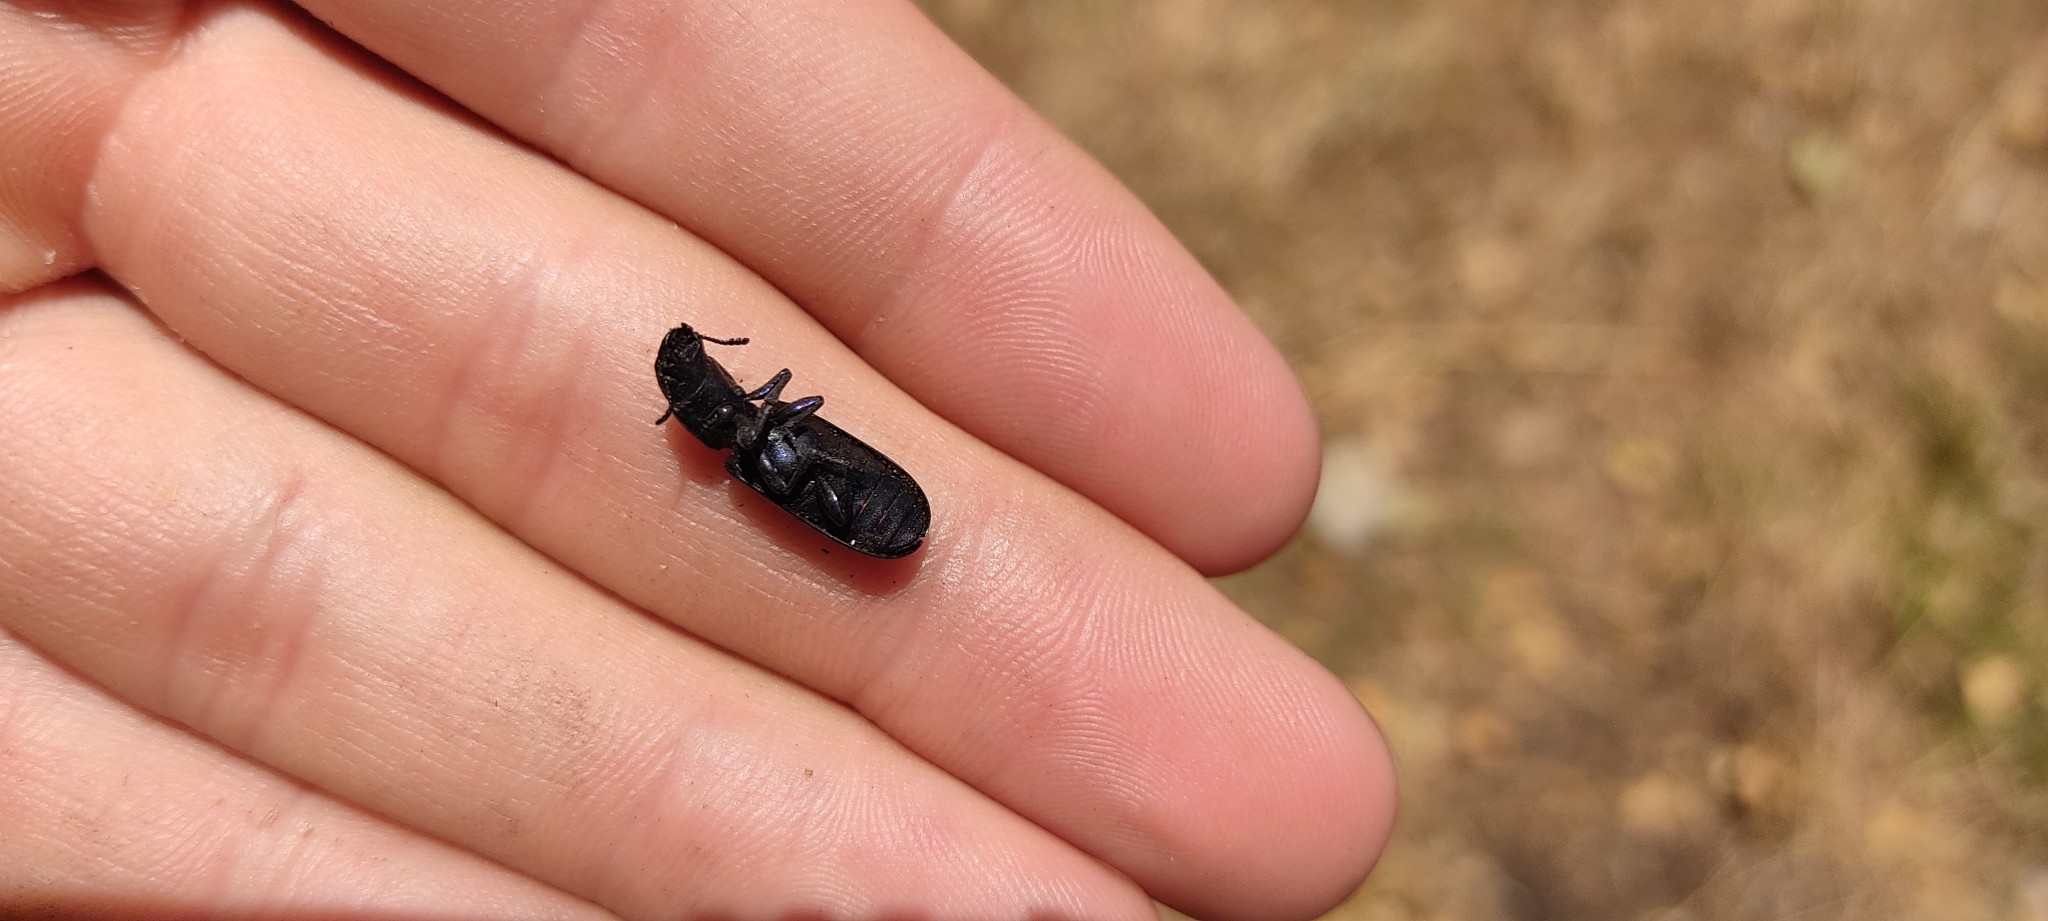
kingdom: Animalia
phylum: Arthropoda
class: Insecta
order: Coleoptera
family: Trogossitidae
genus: Temnoscheila
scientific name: Temnoscheila caerulea
